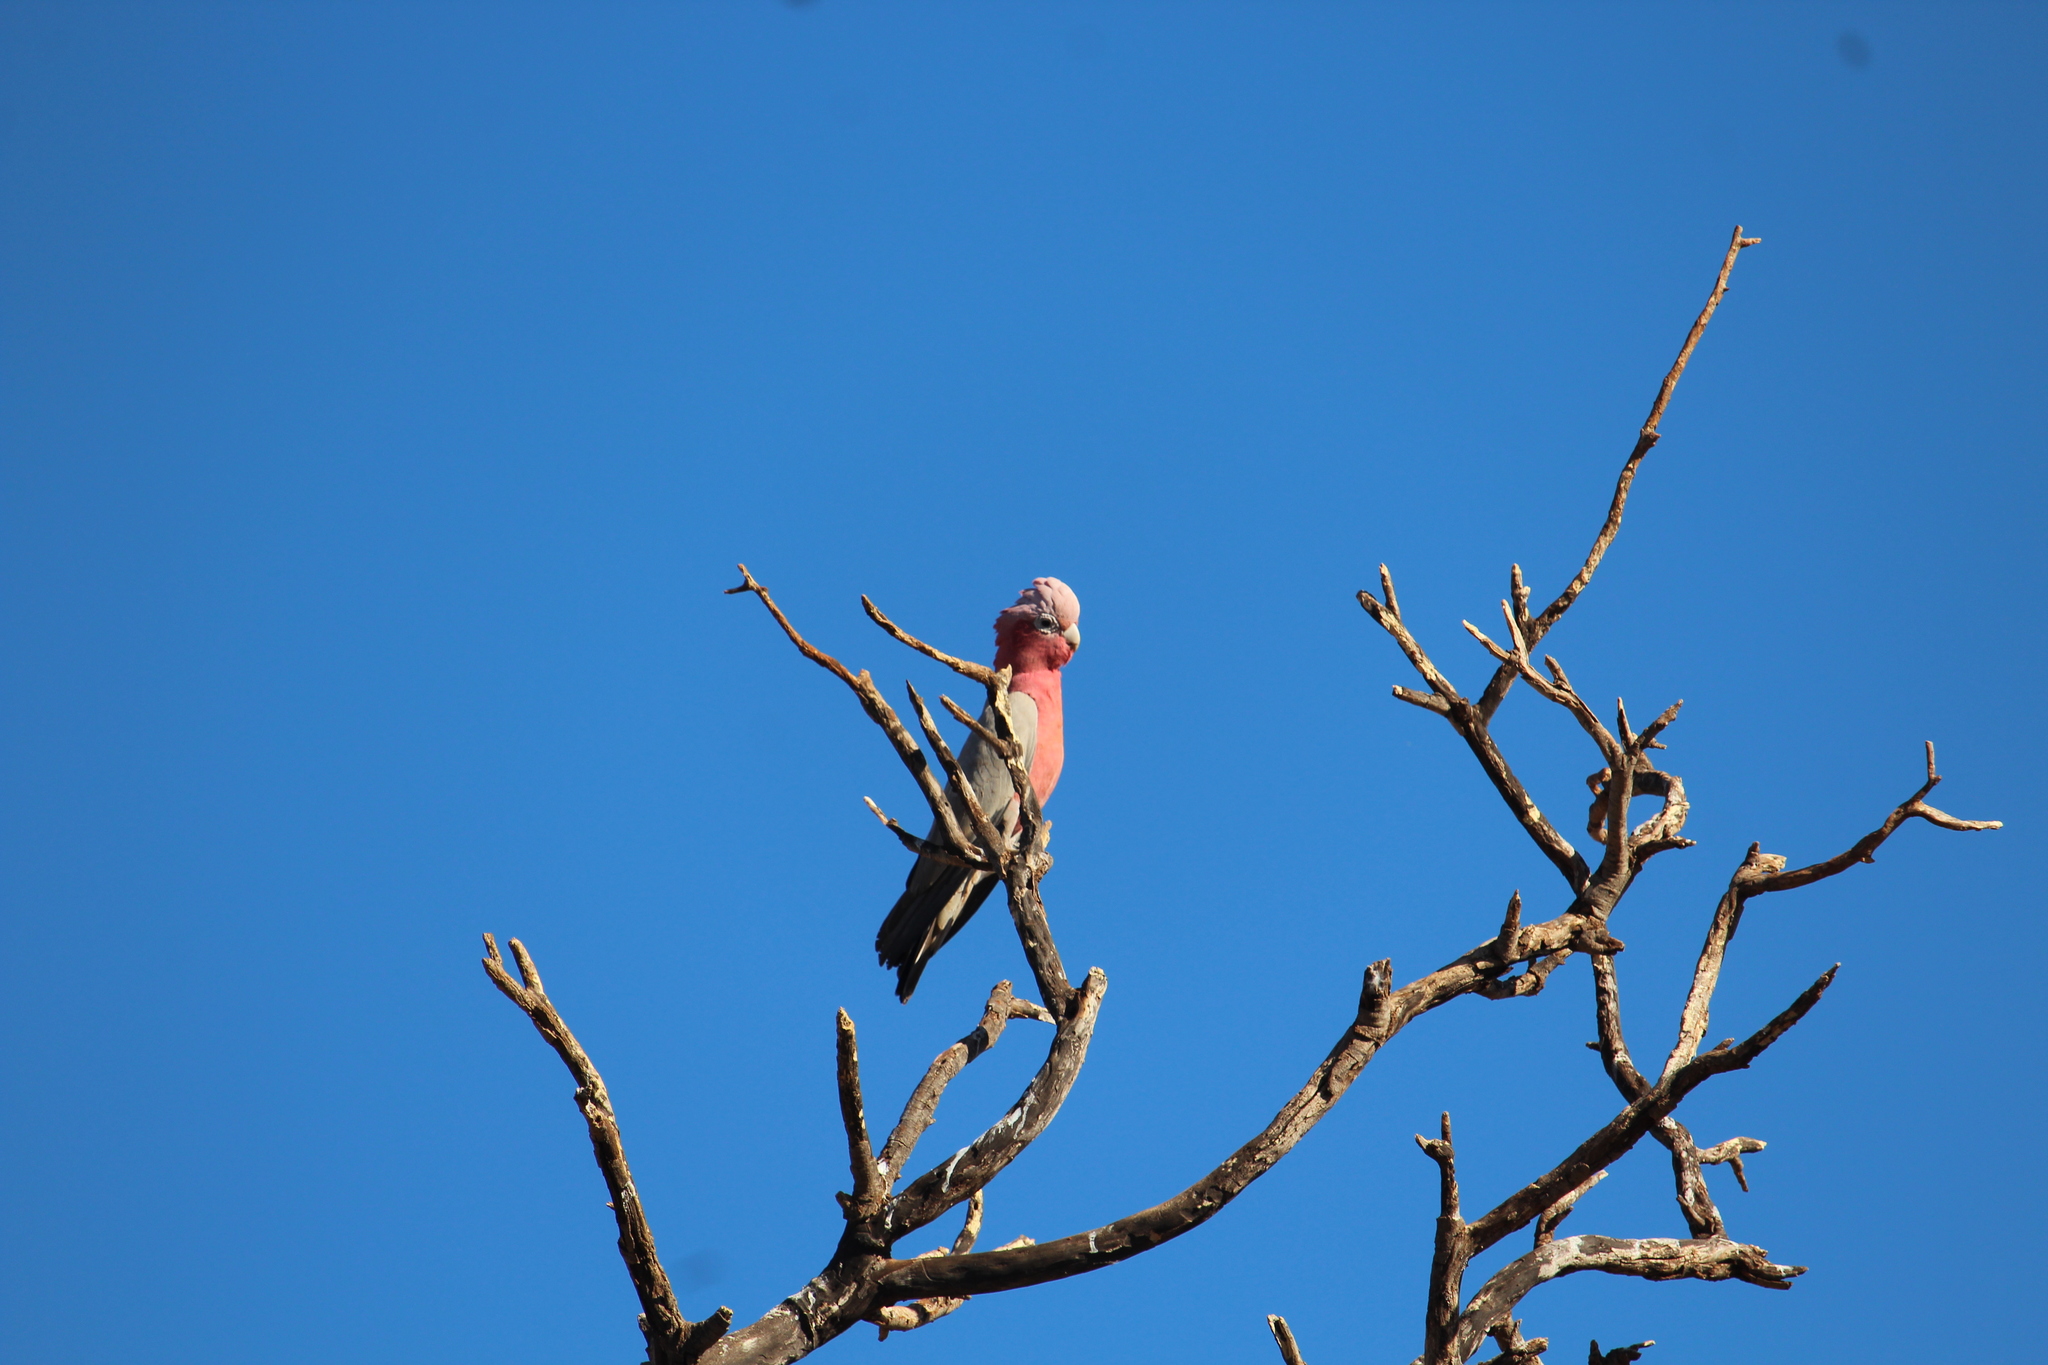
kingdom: Animalia
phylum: Chordata
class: Aves
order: Psittaciformes
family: Psittacidae
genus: Eolophus
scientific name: Eolophus roseicapilla
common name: Galah
